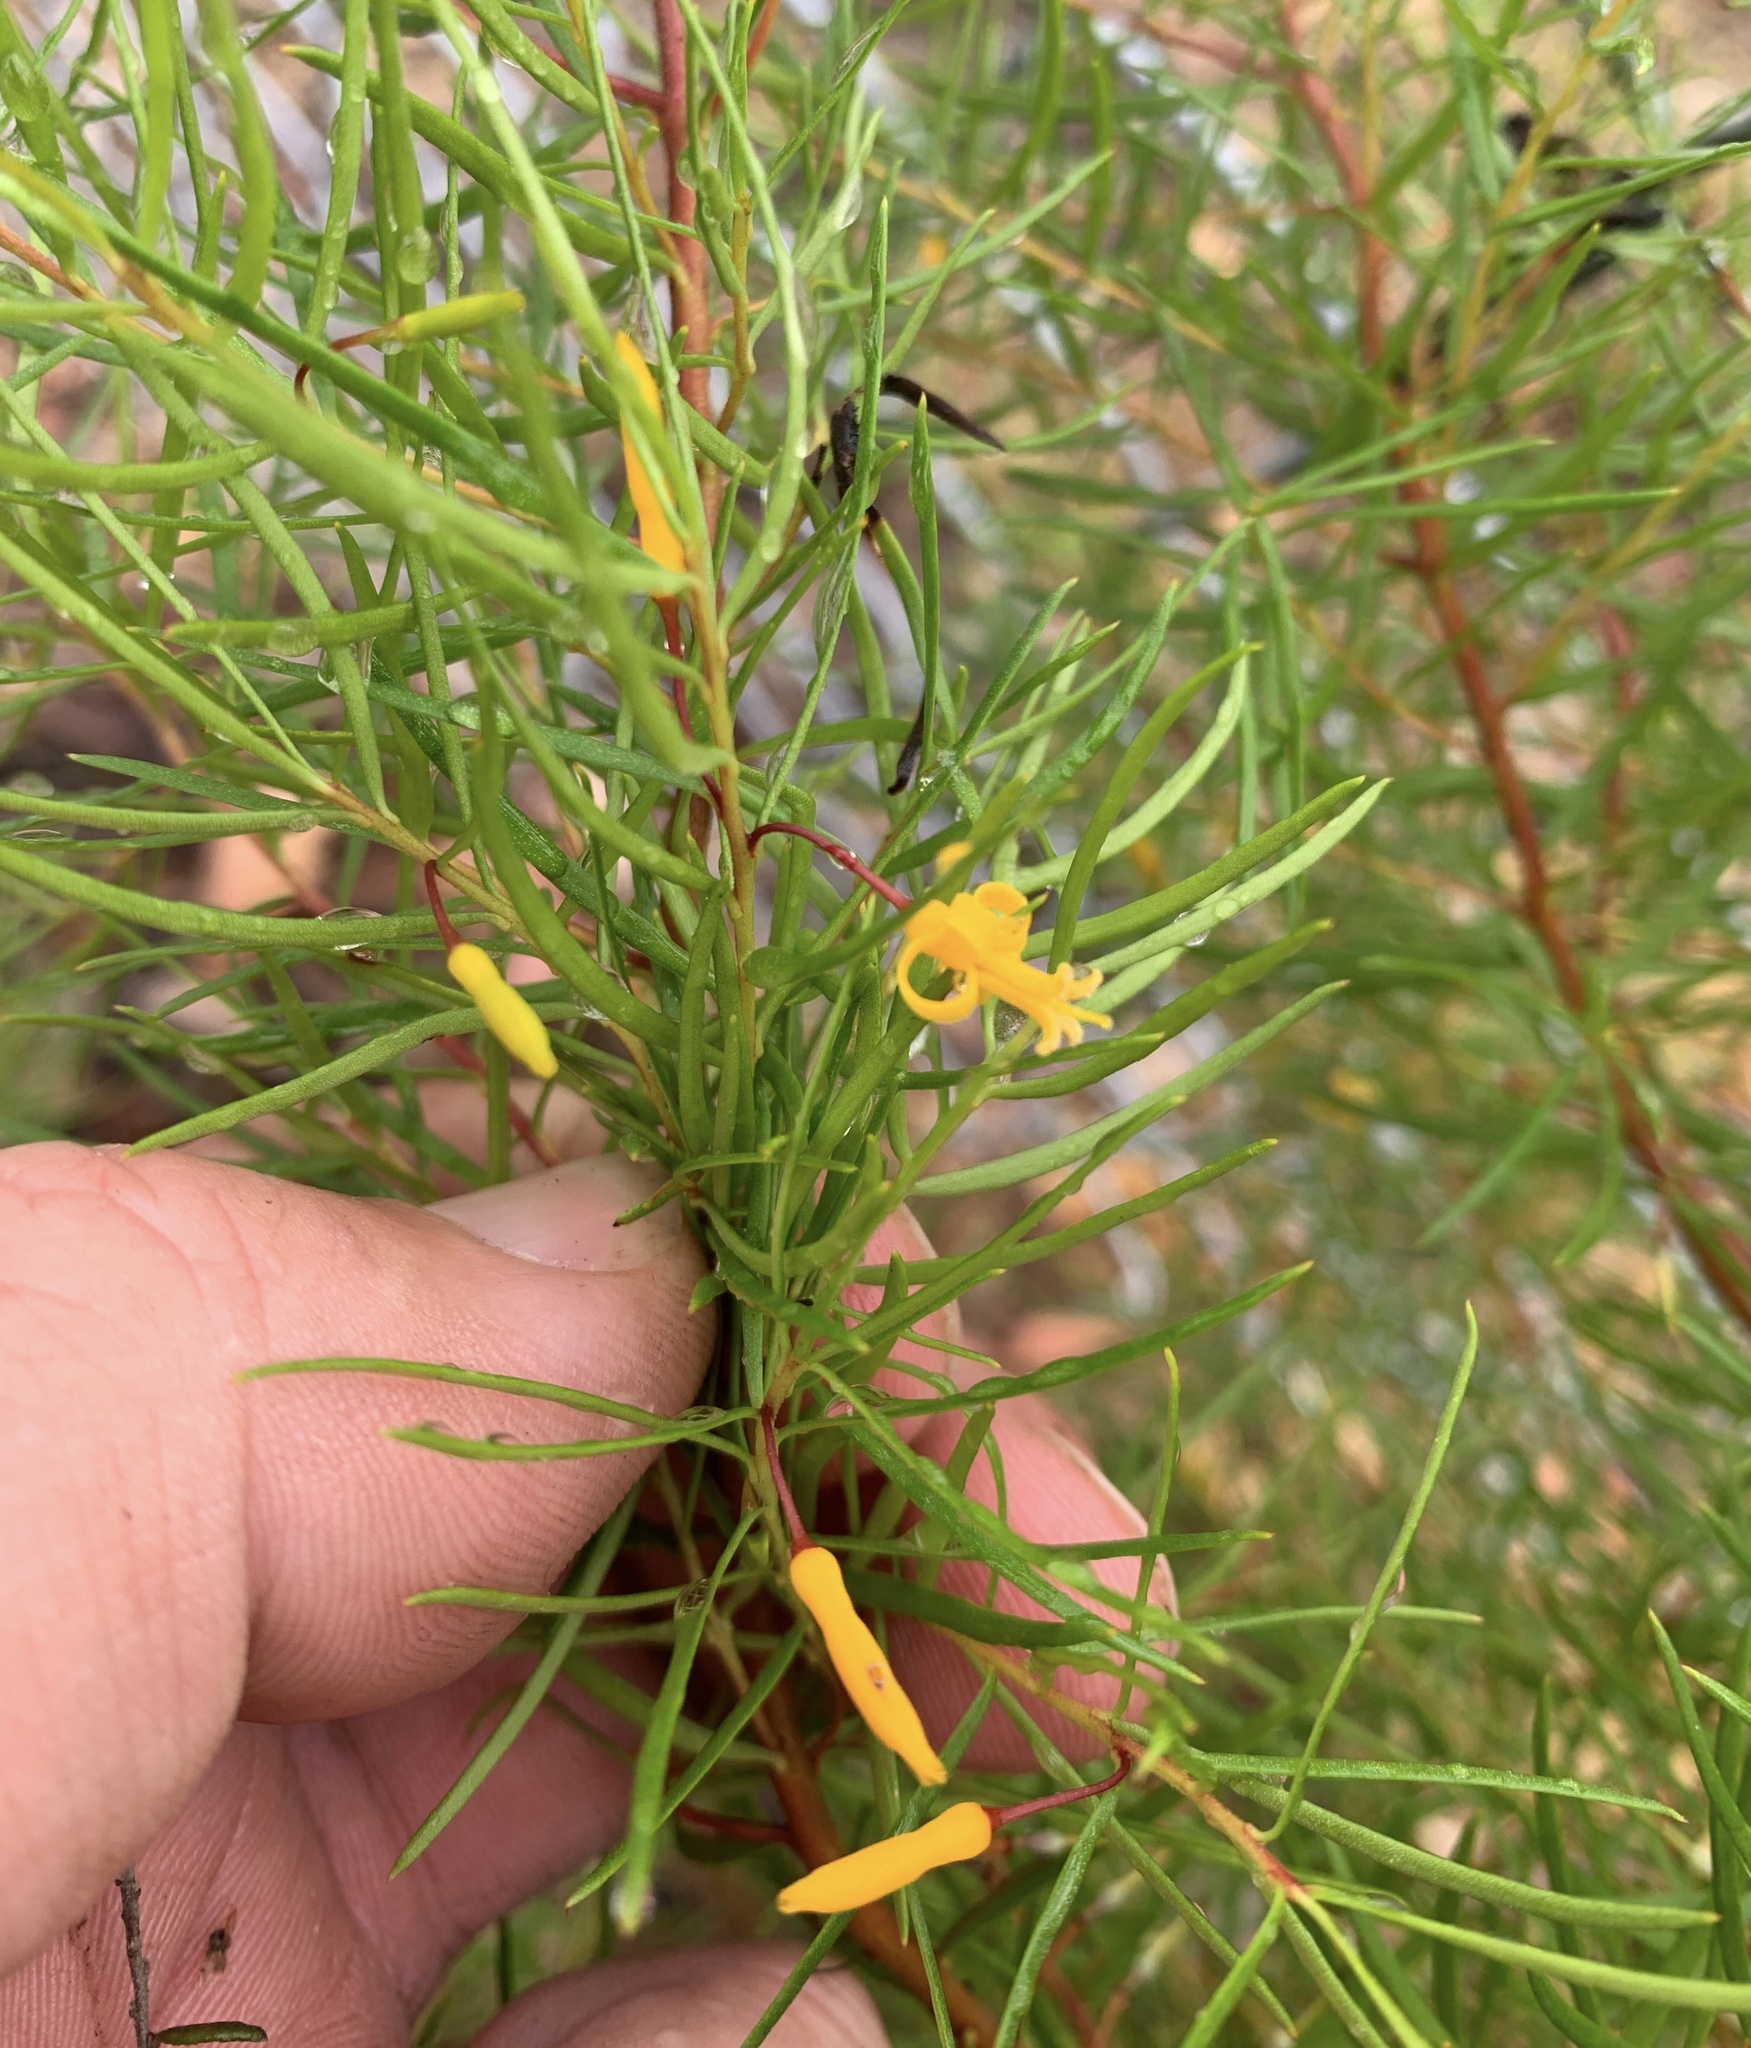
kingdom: Plantae
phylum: Tracheophyta
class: Magnoliopsida
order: Proteales
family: Proteaceae
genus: Persoonia
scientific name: Persoonia nutans
